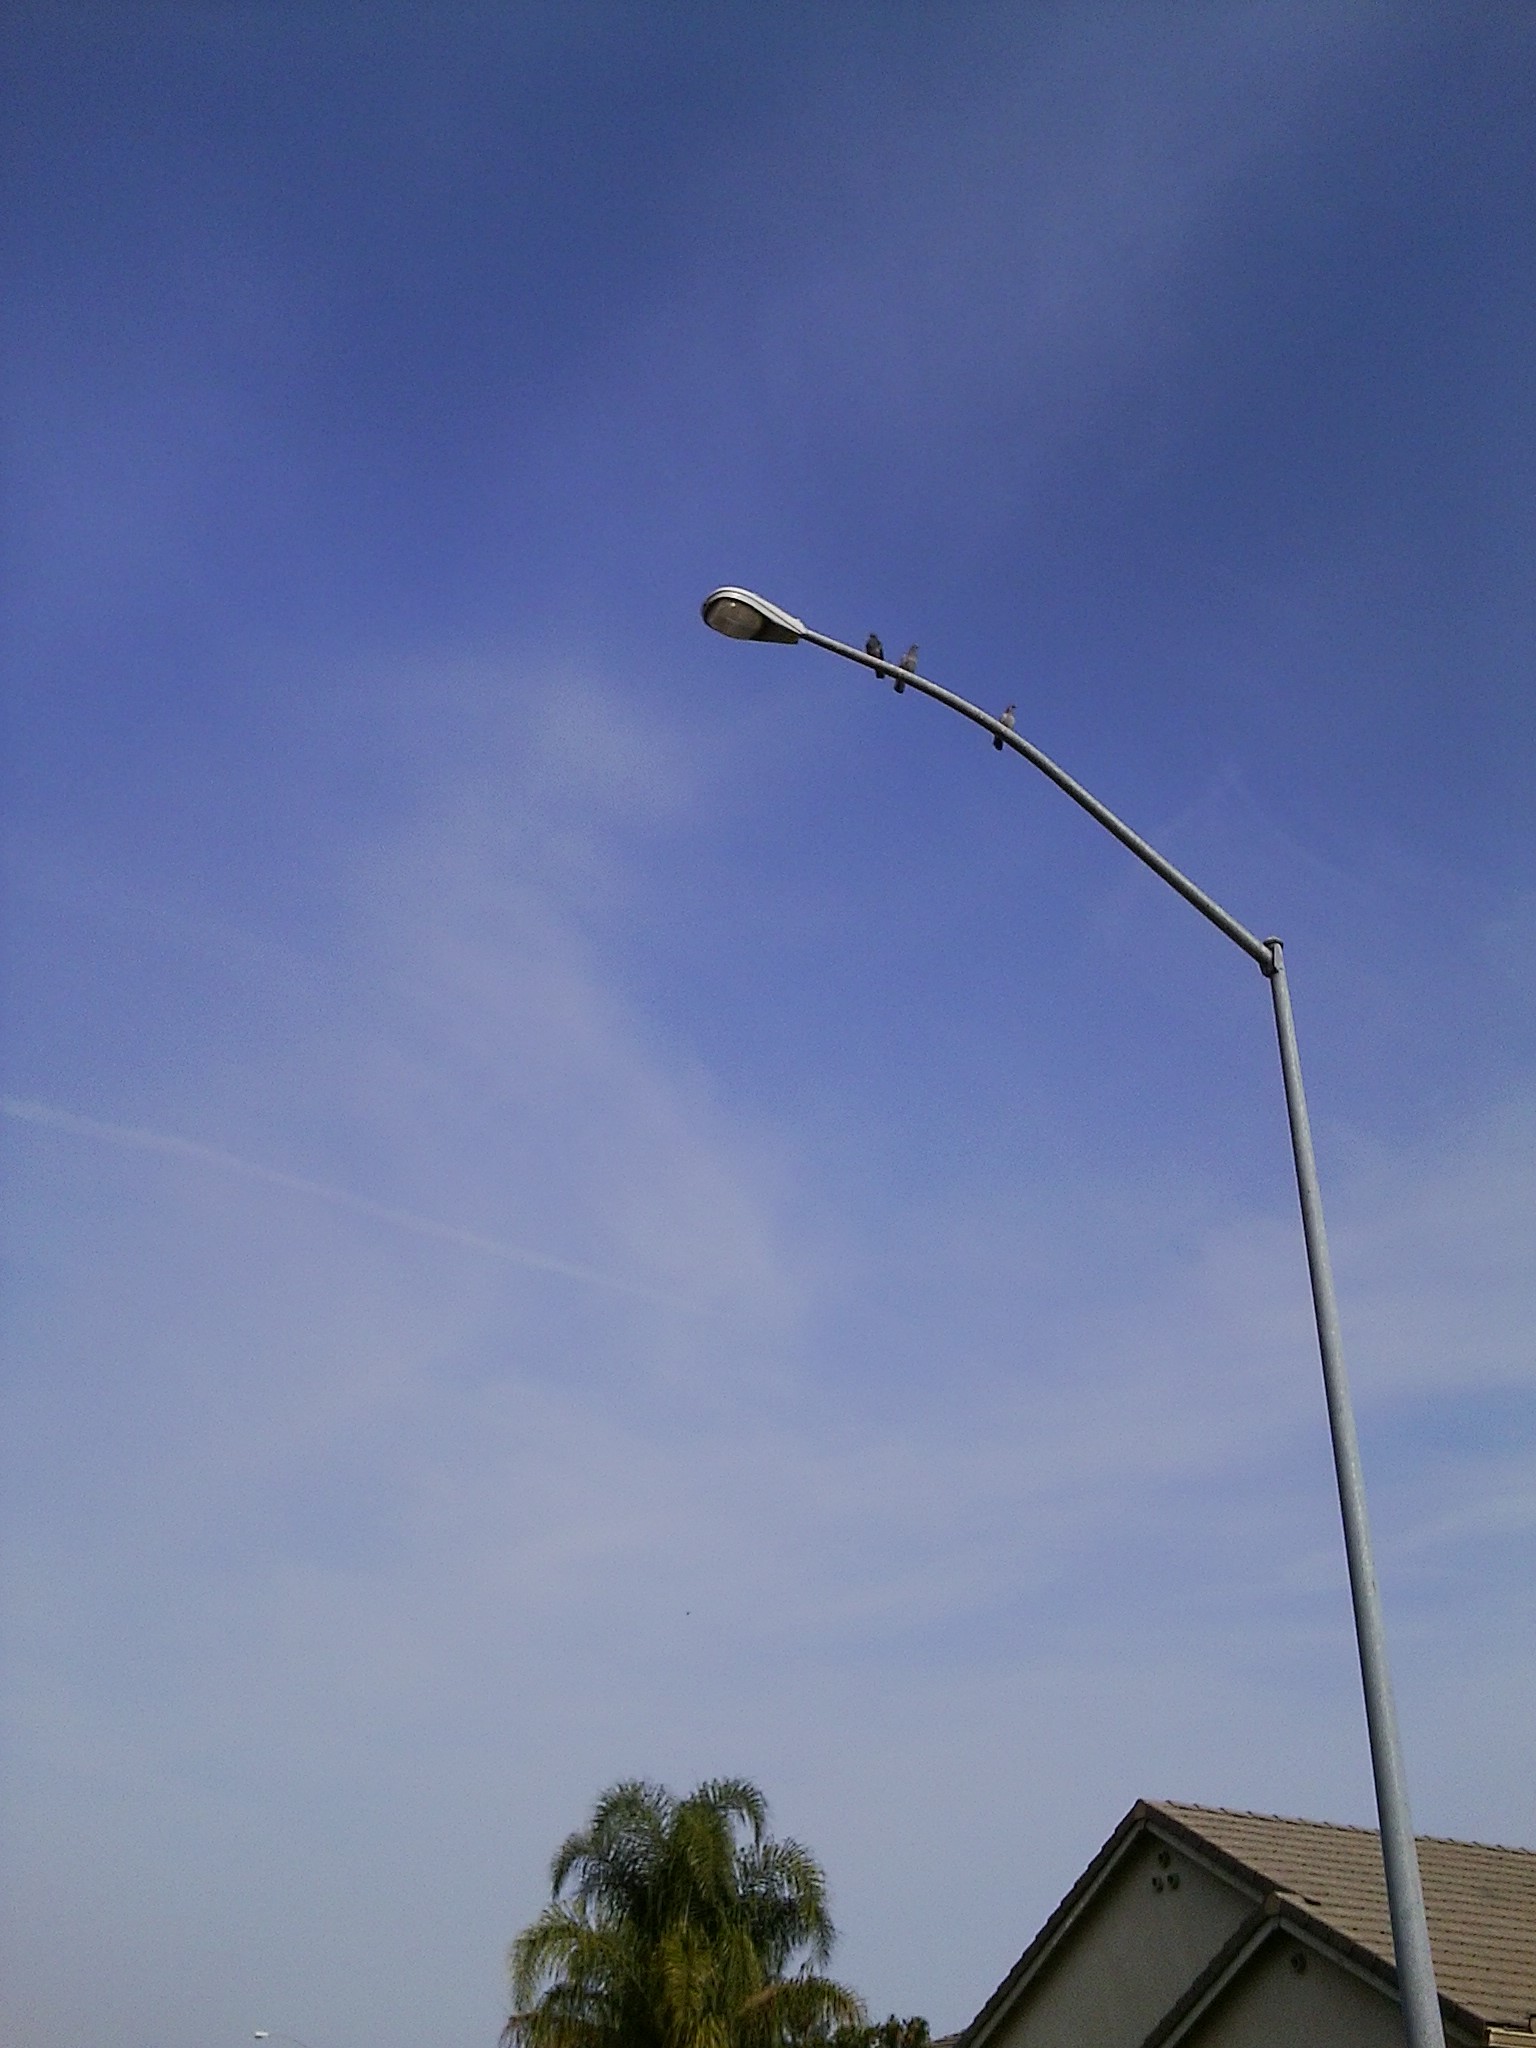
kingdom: Animalia
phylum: Chordata
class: Aves
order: Columbiformes
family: Columbidae
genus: Columba
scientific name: Columba livia
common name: Rock pigeon
